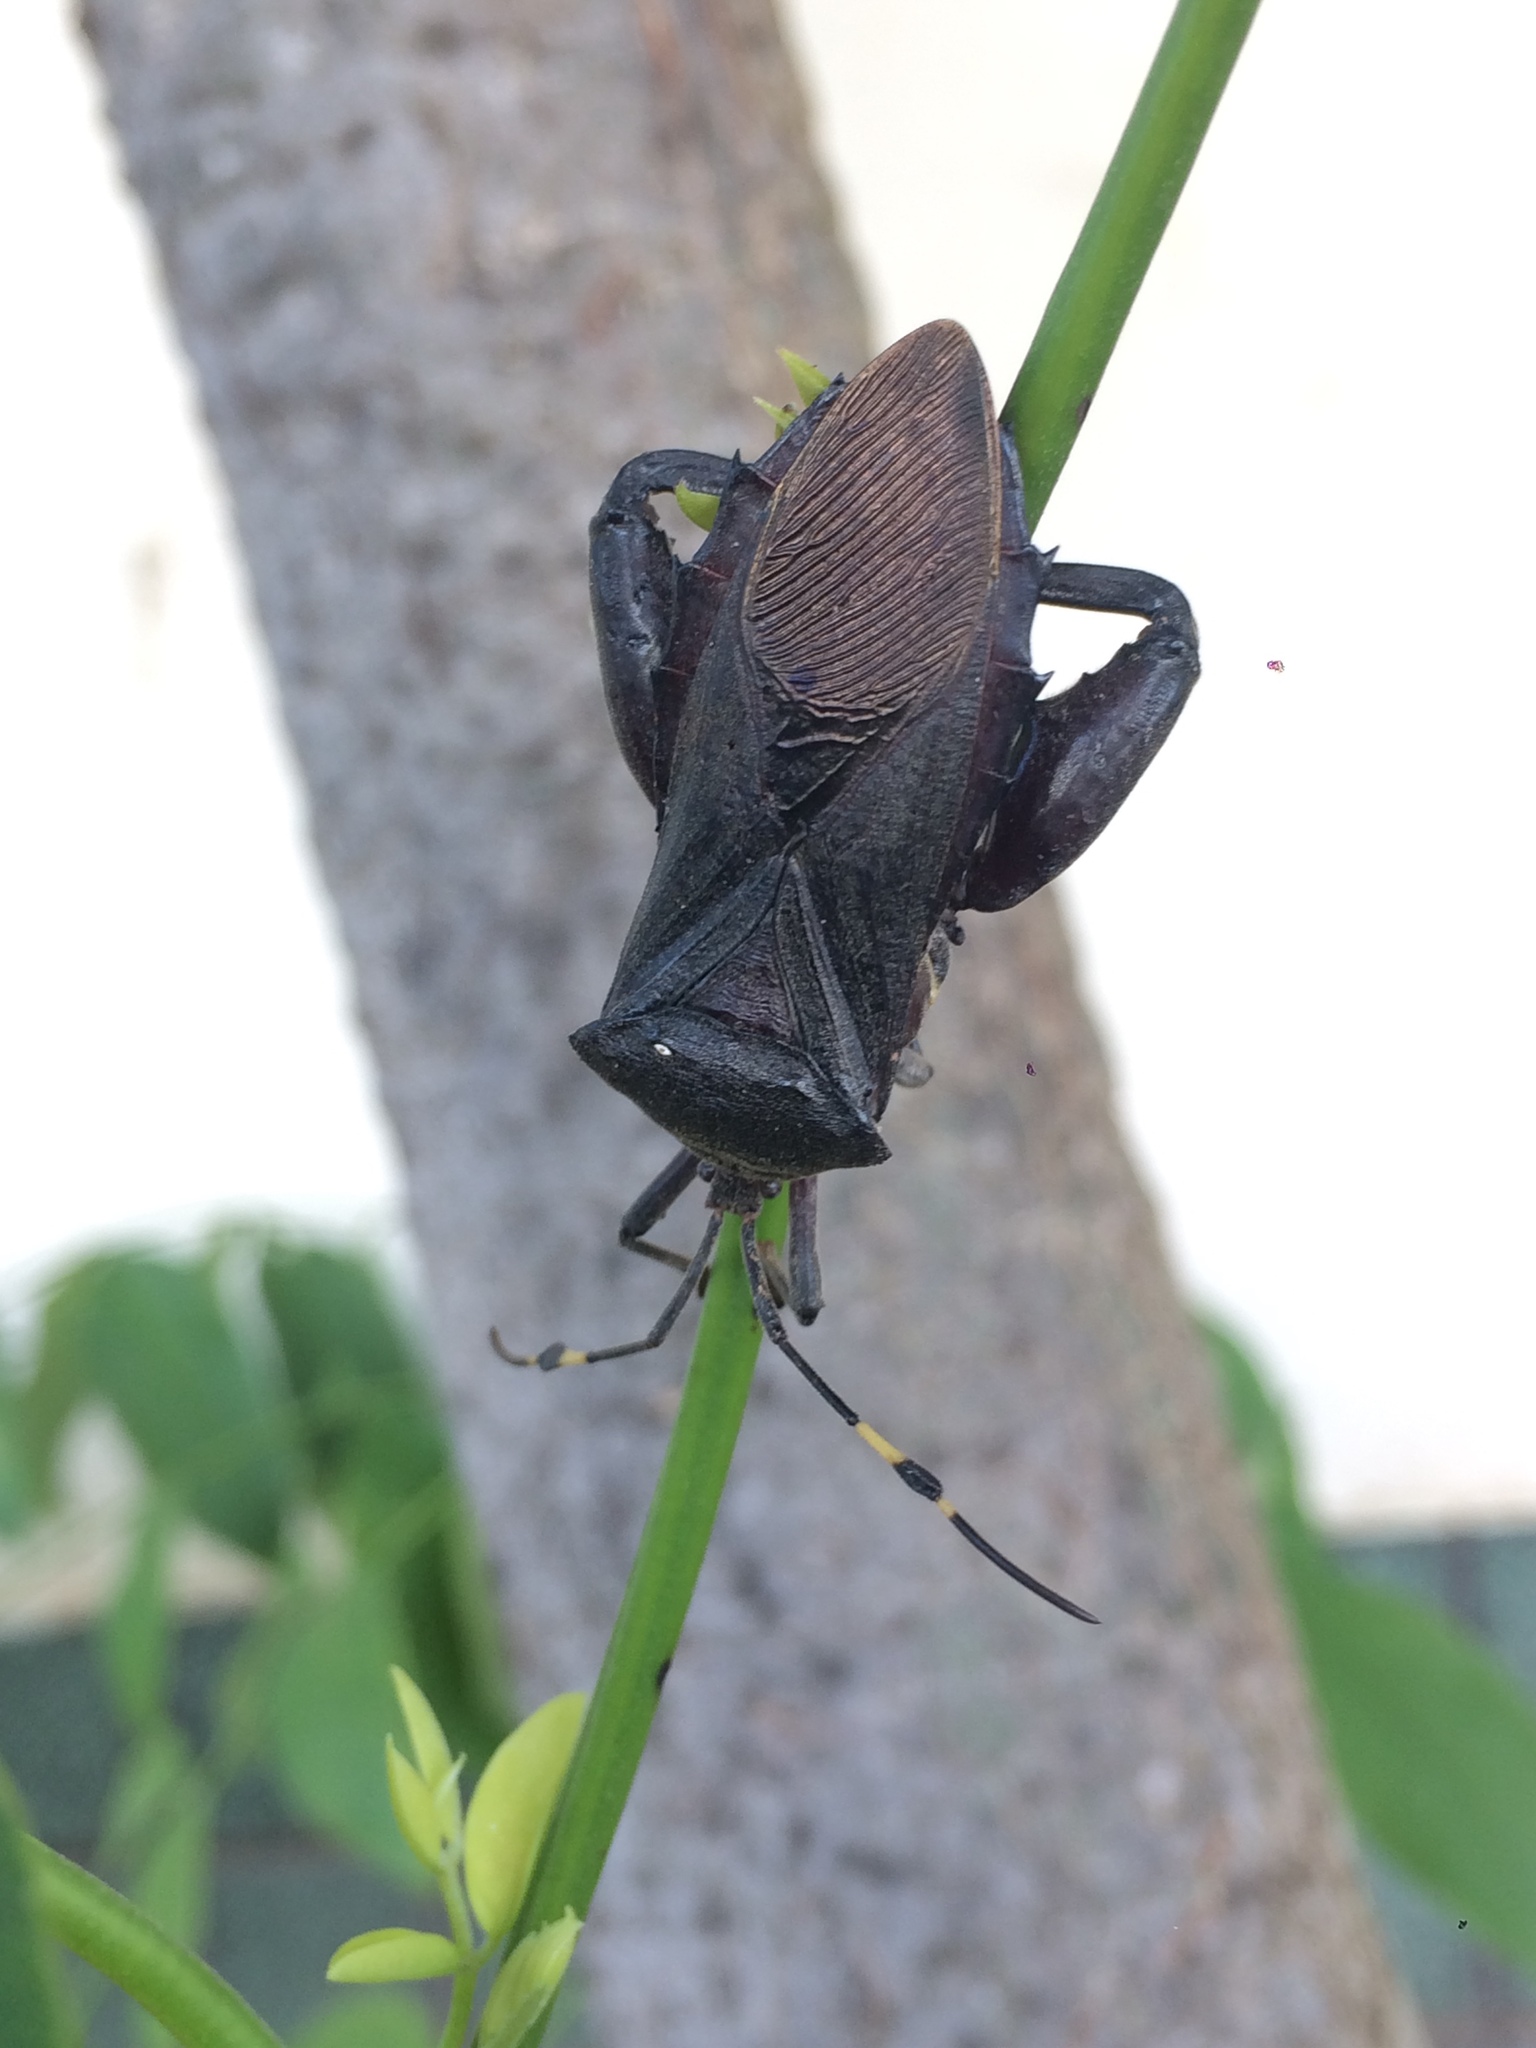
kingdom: Animalia
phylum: Arthropoda
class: Insecta
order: Hemiptera
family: Coreidae
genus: Pachylis
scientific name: Pachylis laticornis
